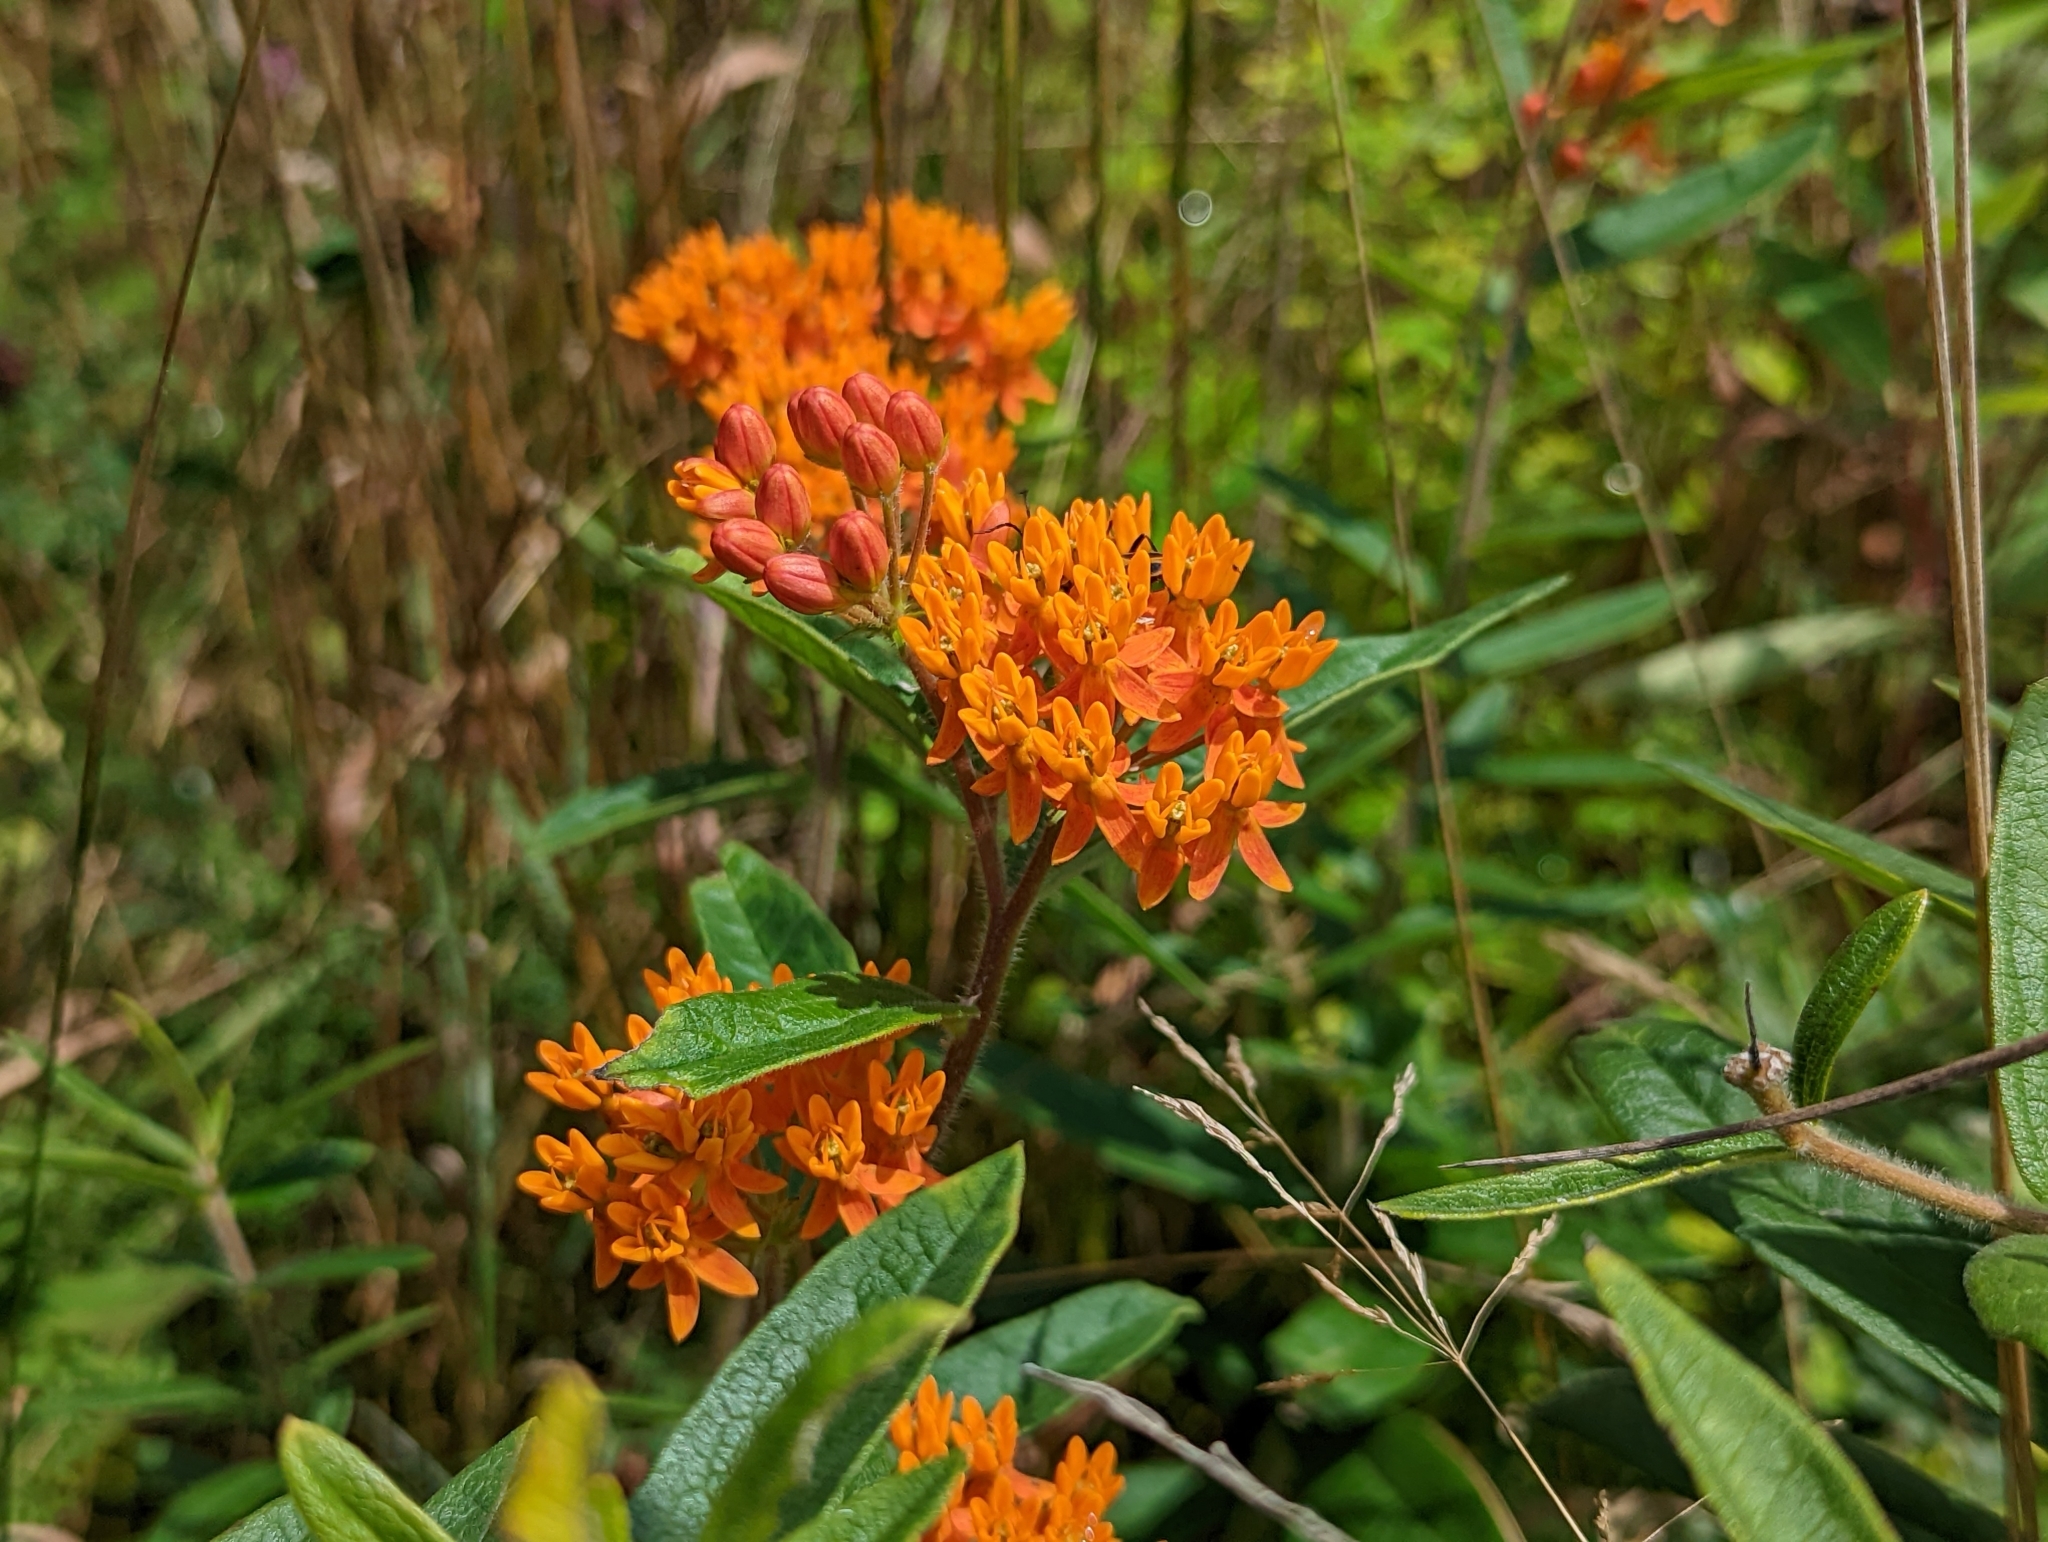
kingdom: Plantae
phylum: Tracheophyta
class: Magnoliopsida
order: Gentianales
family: Apocynaceae
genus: Asclepias
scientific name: Asclepias tuberosa
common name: Butterfly milkweed
